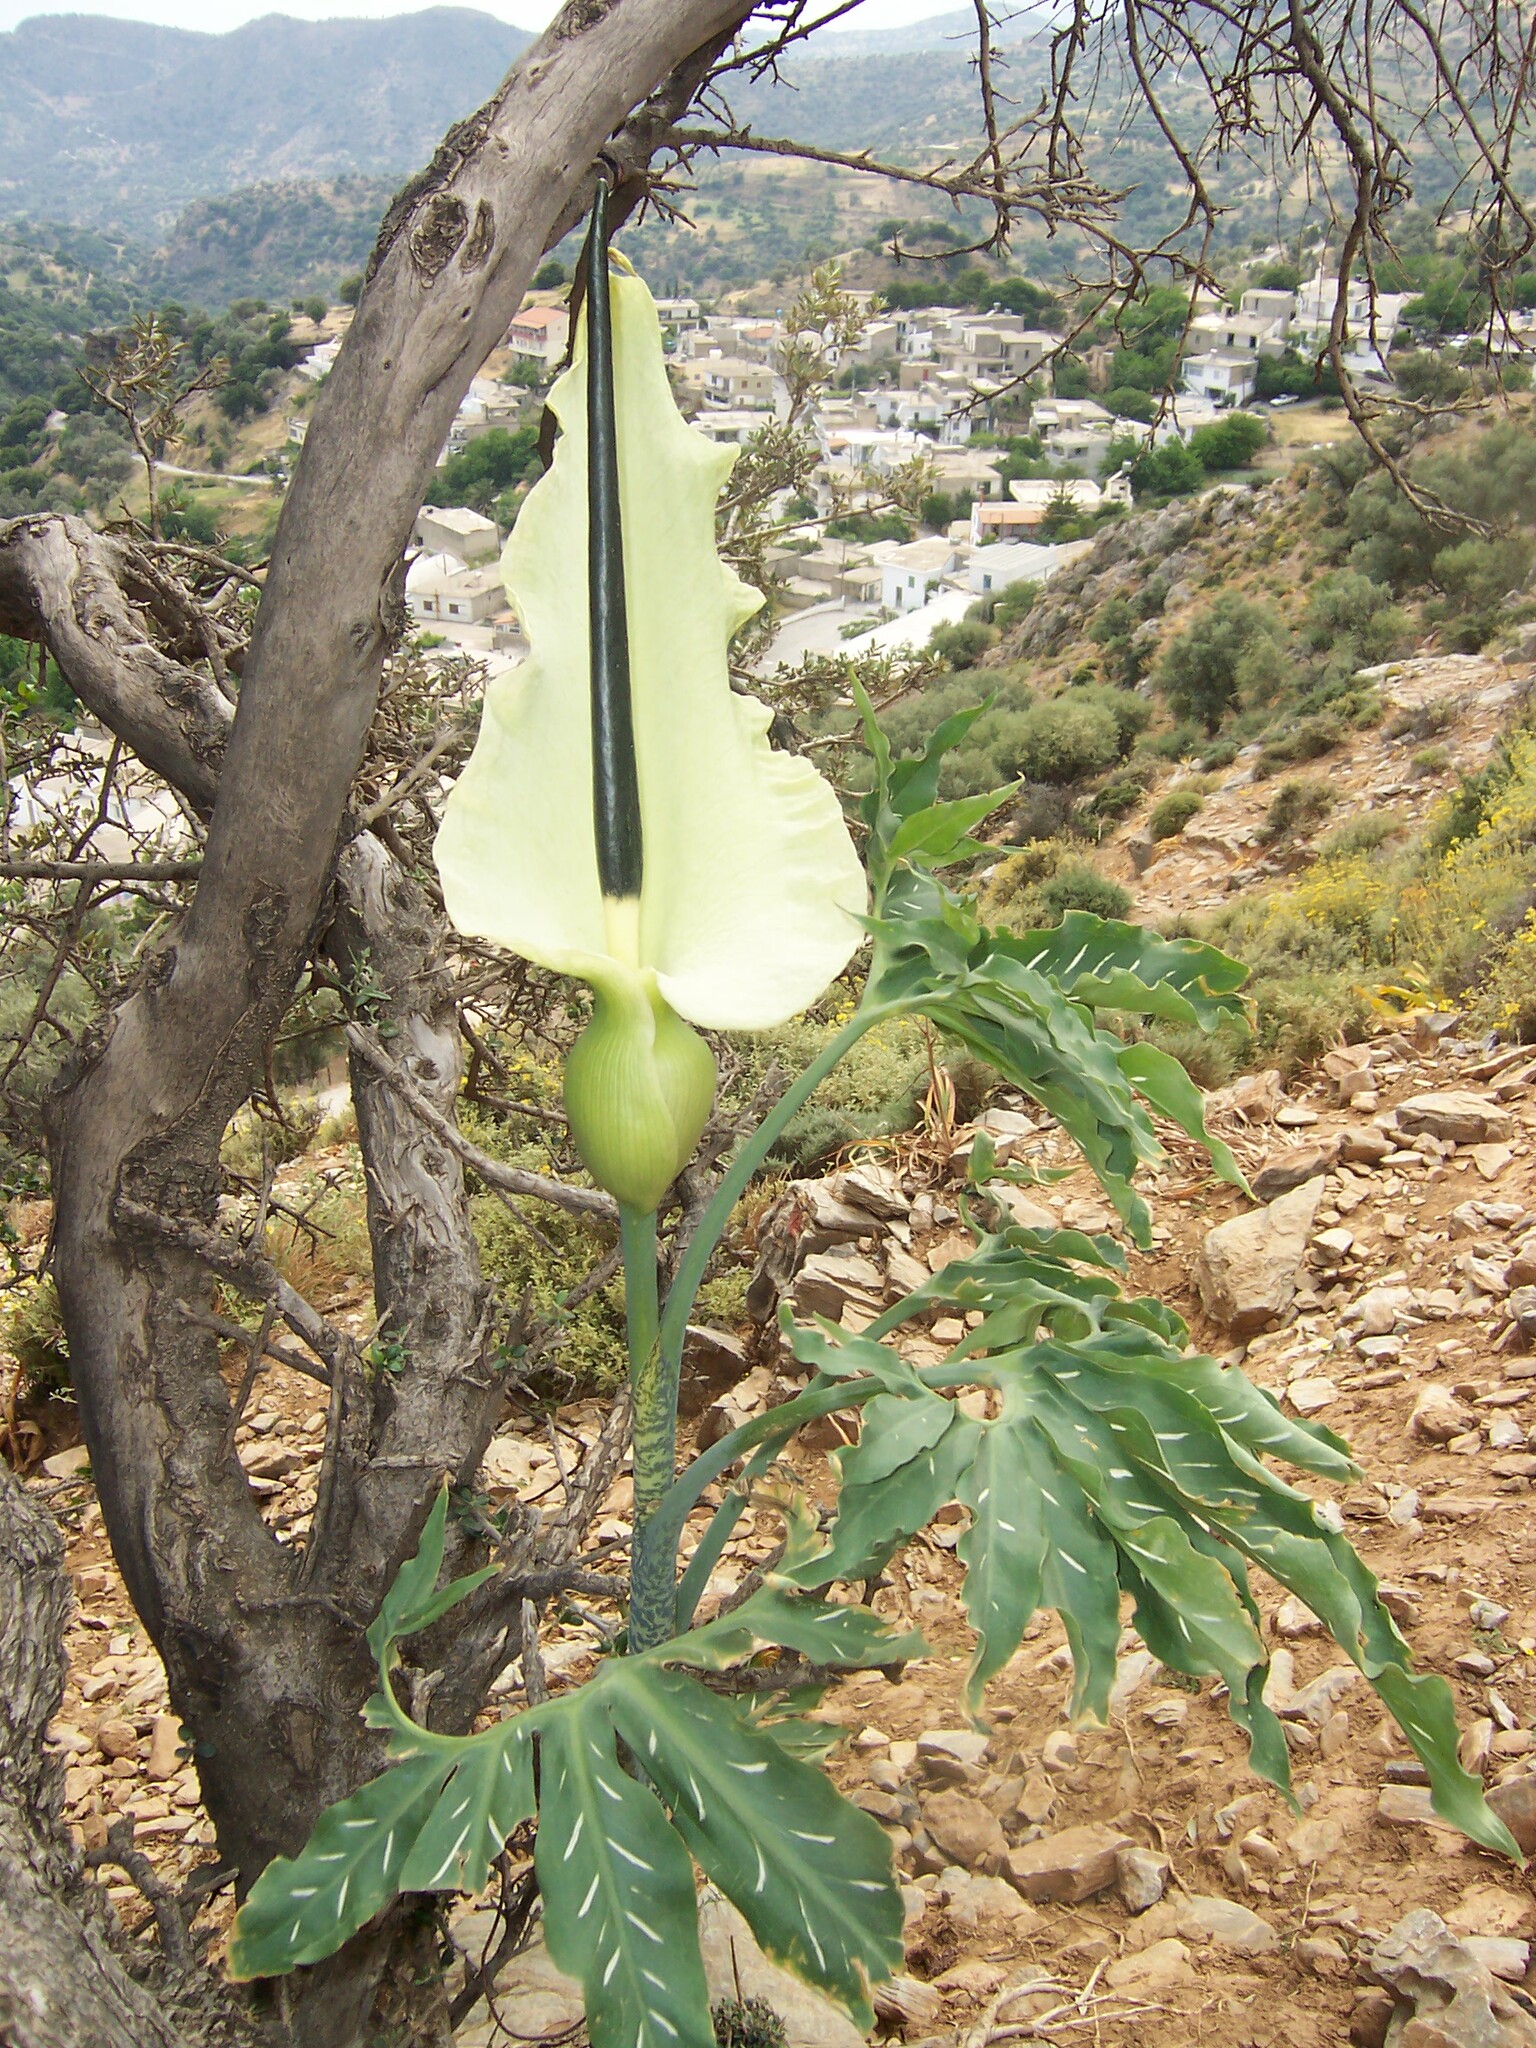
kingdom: Plantae
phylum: Tracheophyta
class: Liliopsida
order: Alismatales
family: Araceae
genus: Dracunculus
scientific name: Dracunculus vulgaris
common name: Dragon arum
